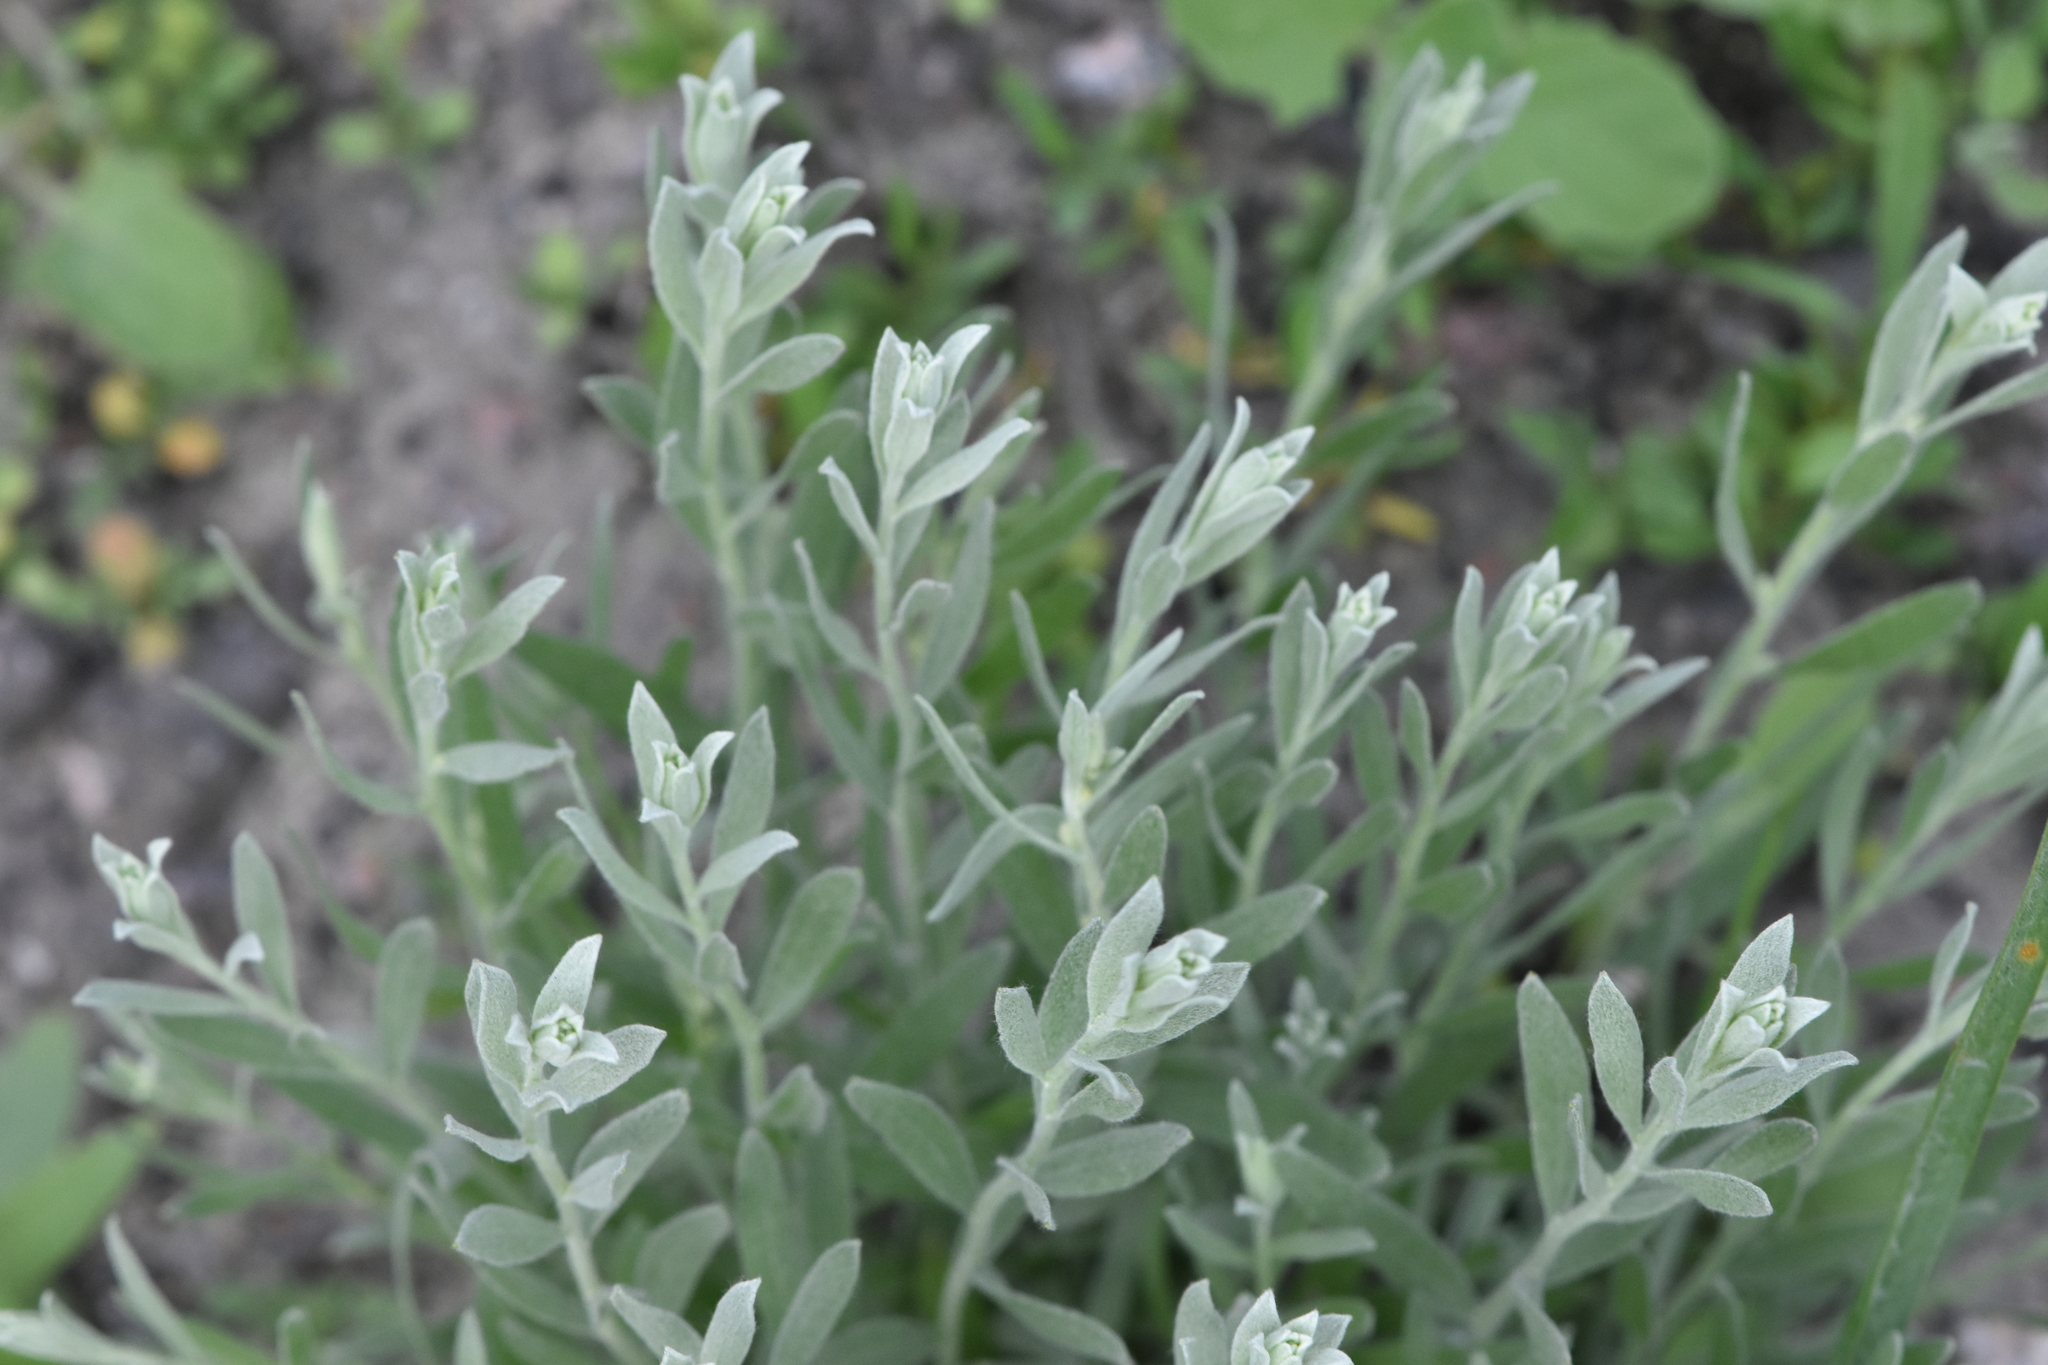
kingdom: Plantae
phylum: Tracheophyta
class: Magnoliopsida
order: Asterales
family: Asteraceae
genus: Galatella
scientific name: Galatella villosa
